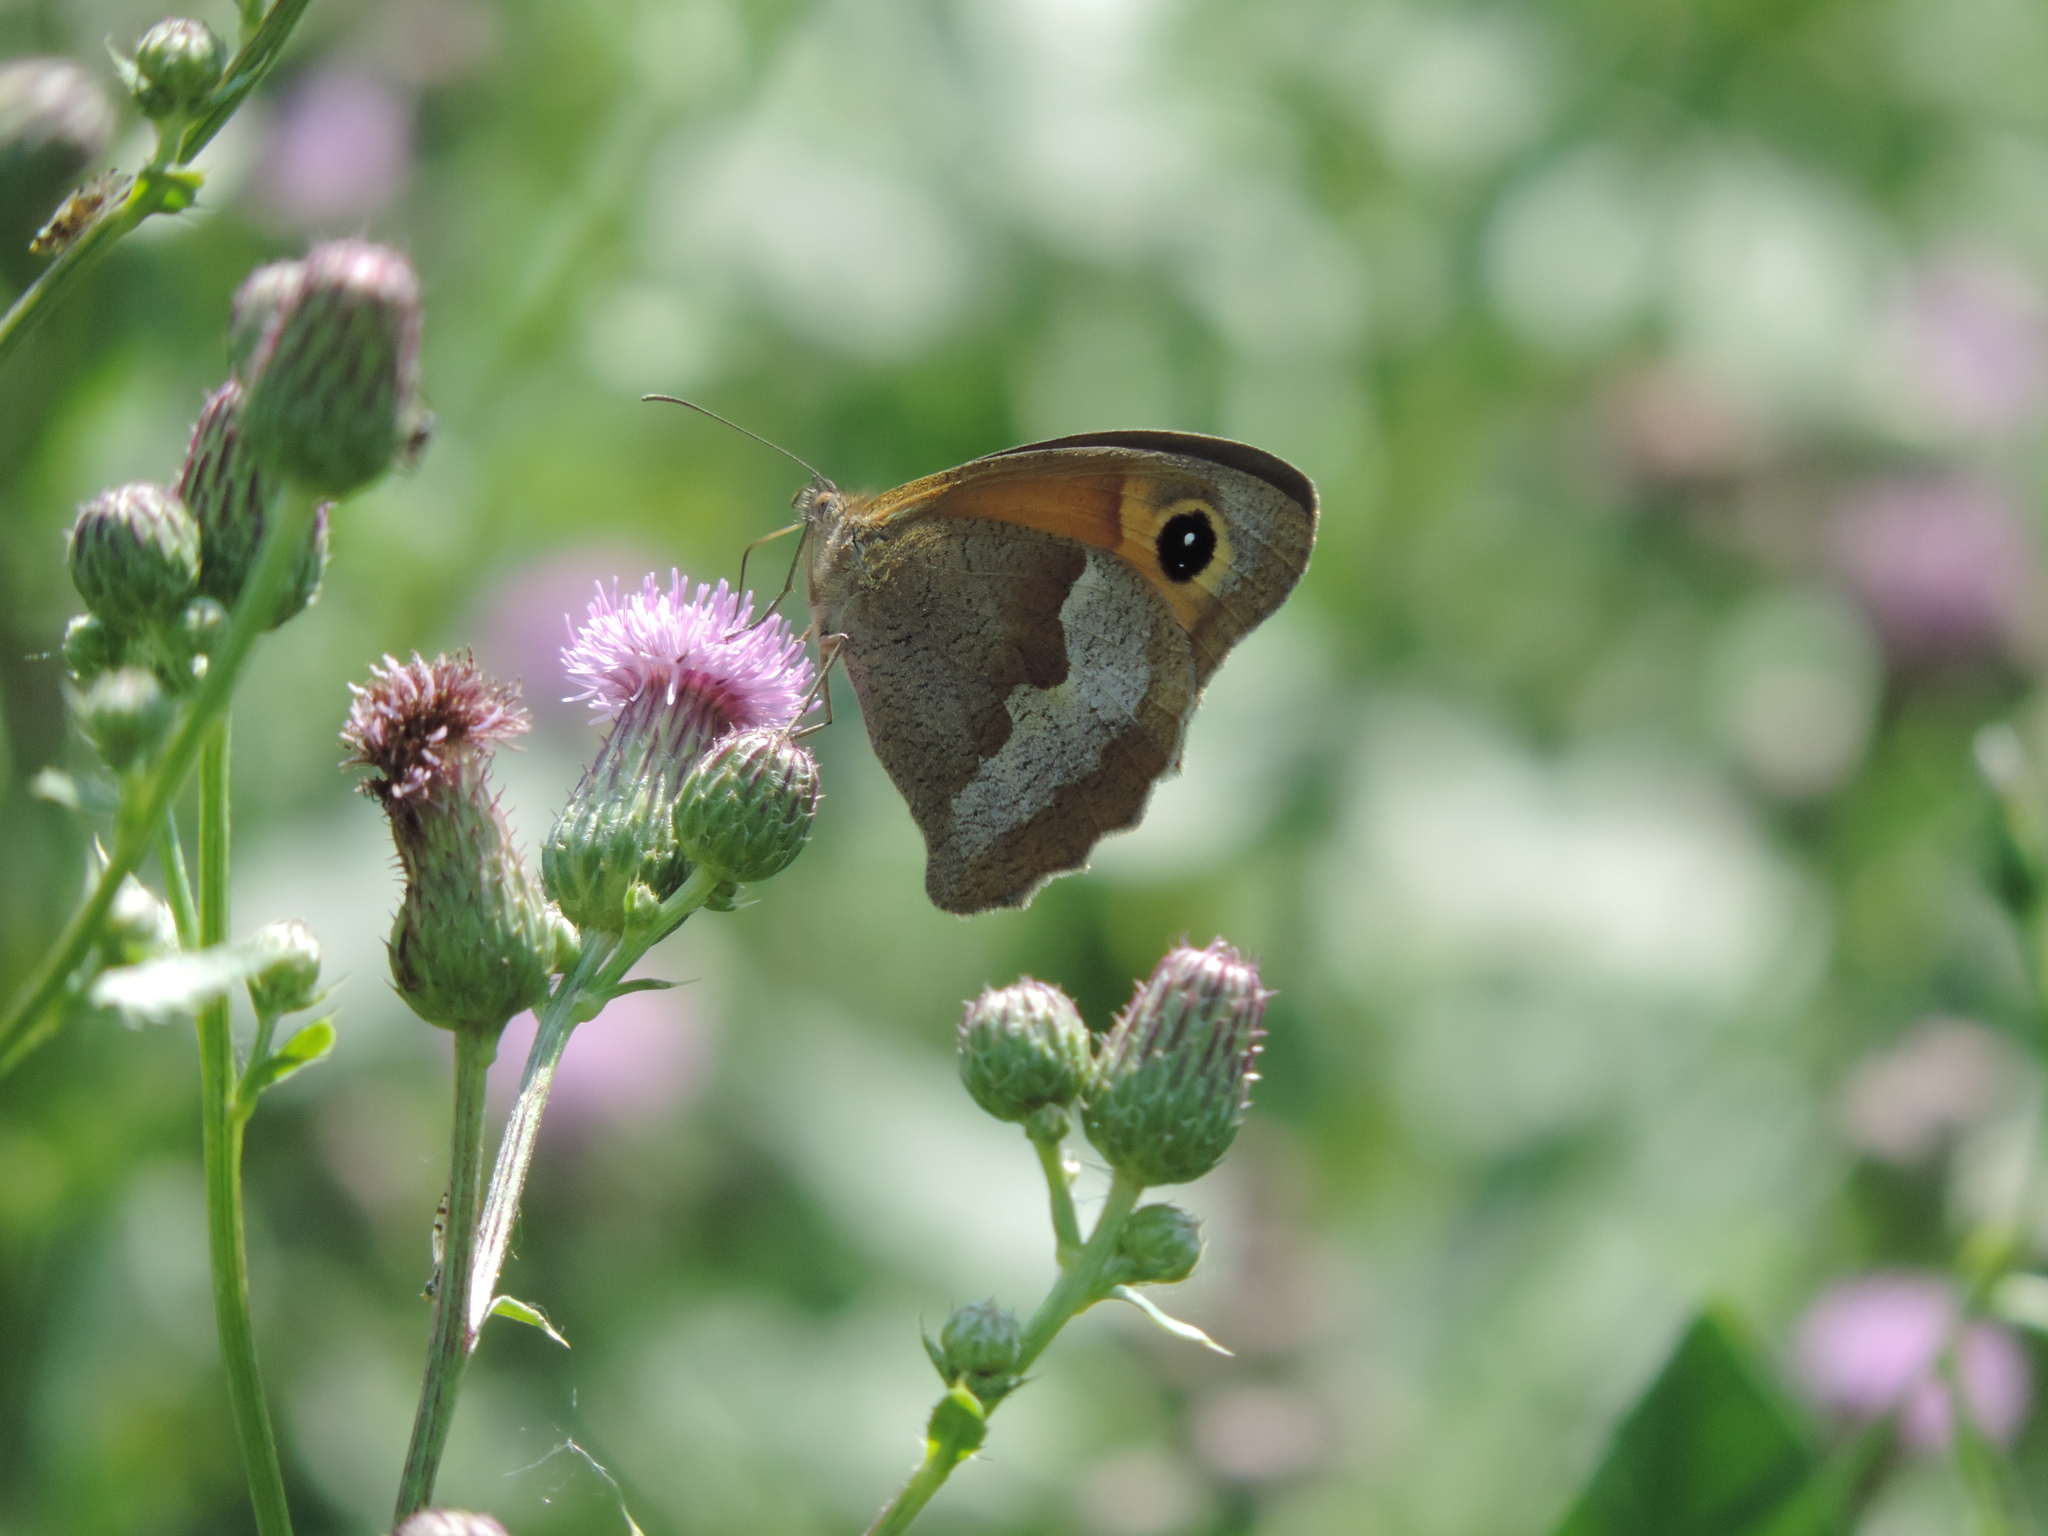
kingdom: Animalia
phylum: Arthropoda
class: Insecta
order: Lepidoptera
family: Nymphalidae
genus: Maniola
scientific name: Maniola jurtina
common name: Meadow brown
